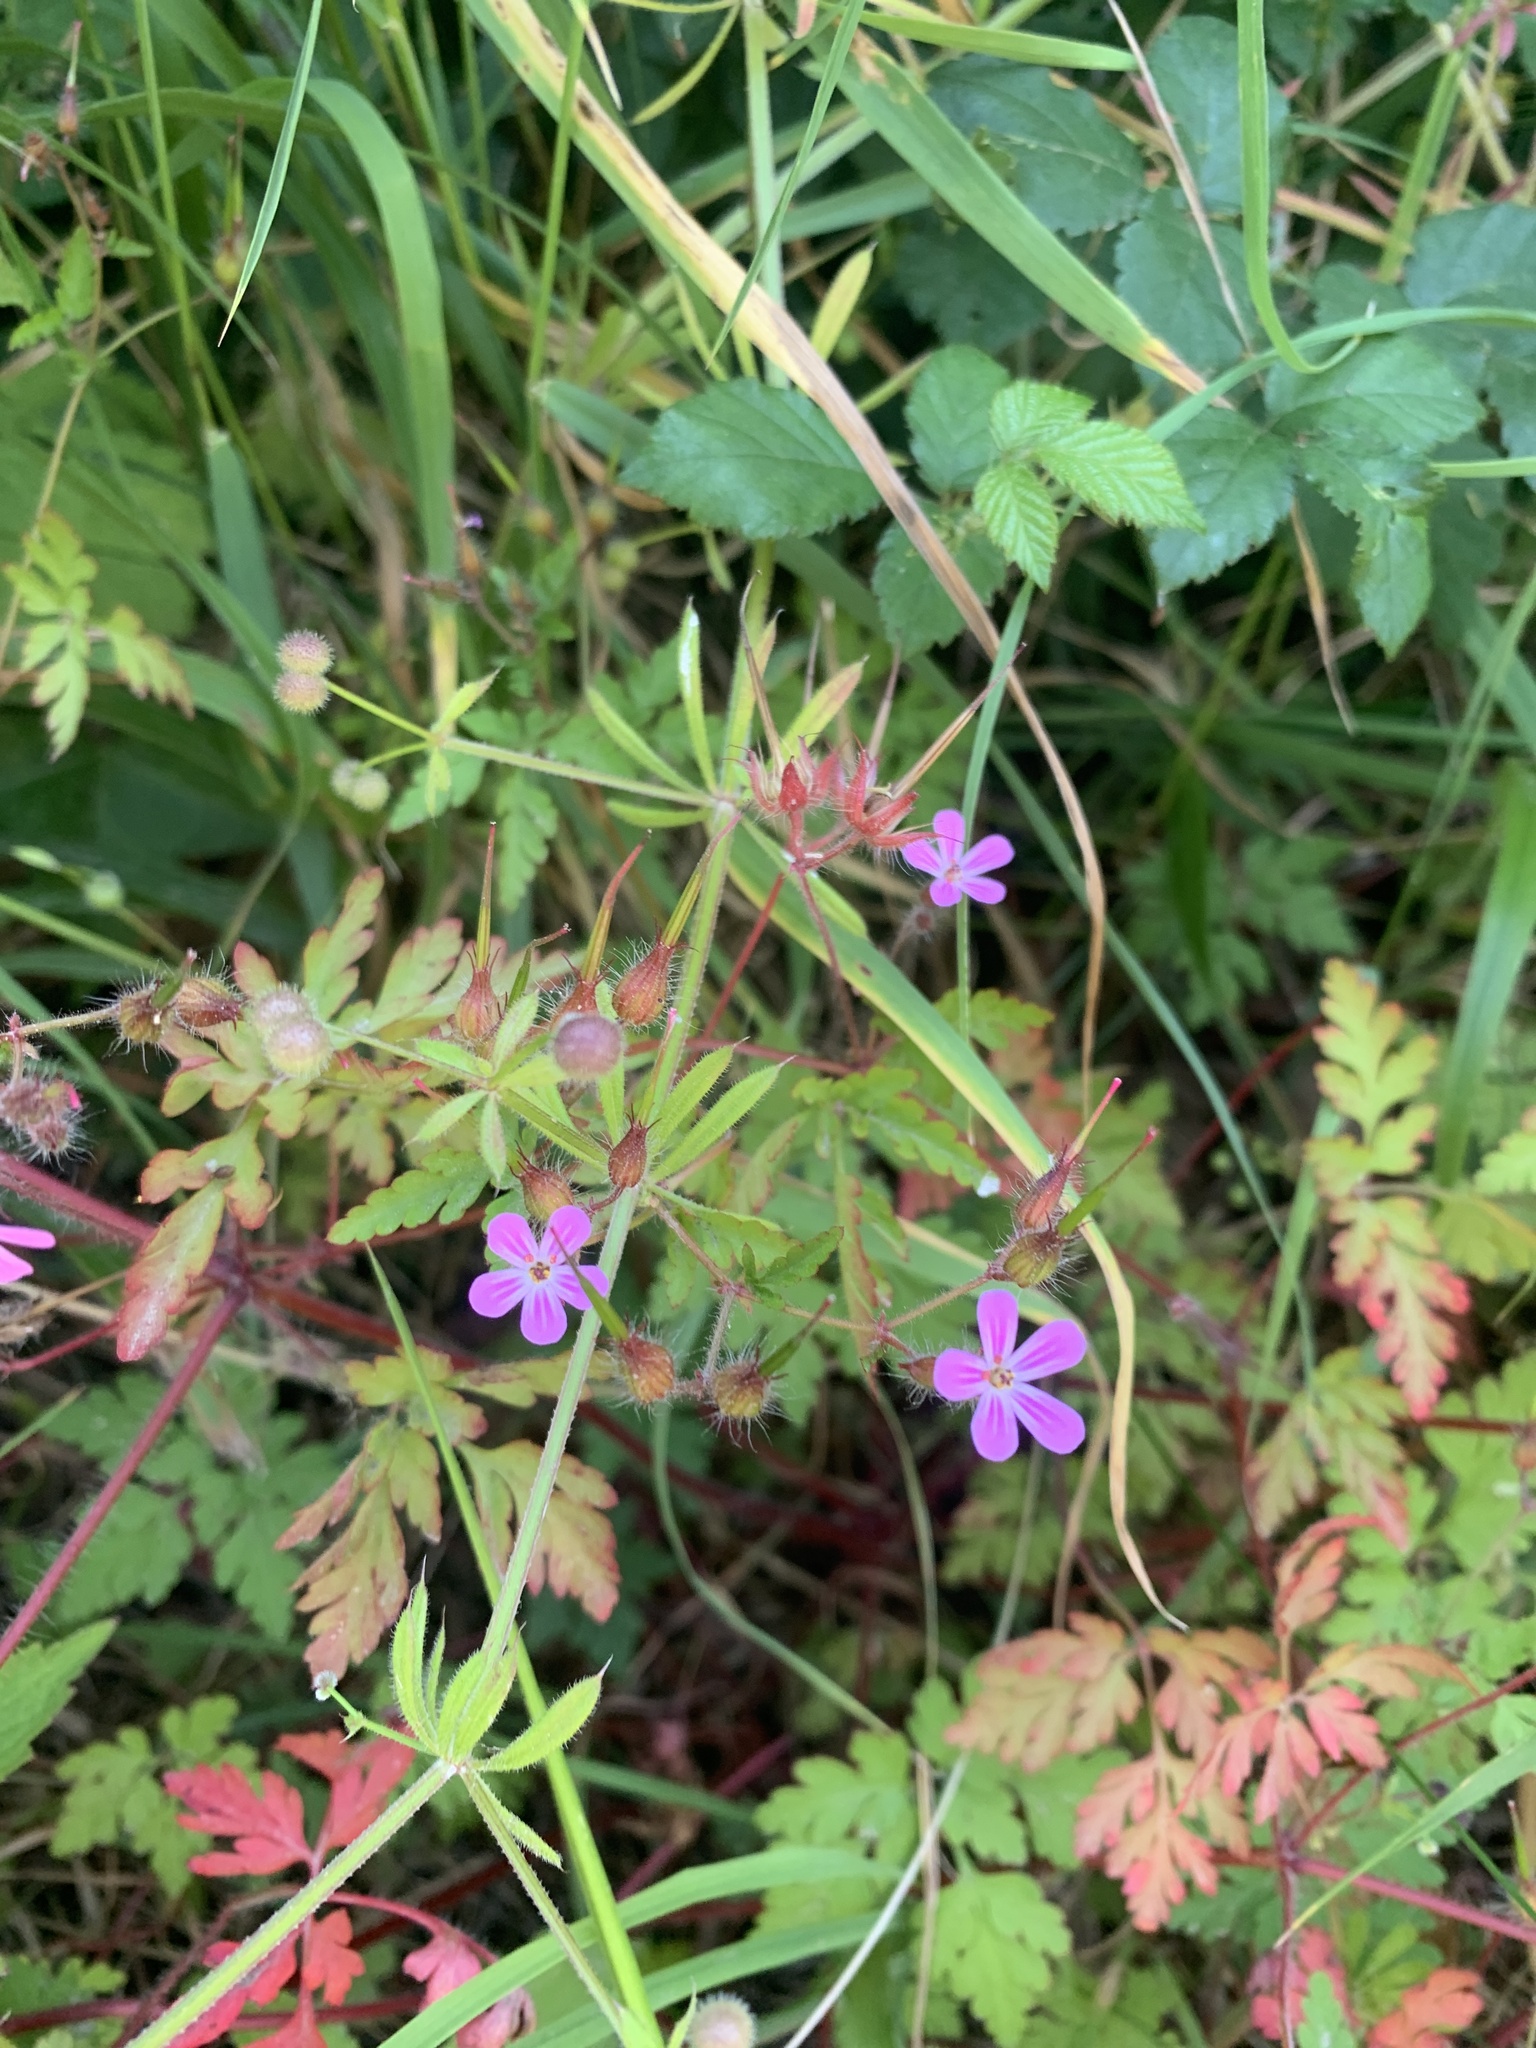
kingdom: Plantae
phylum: Tracheophyta
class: Magnoliopsida
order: Geraniales
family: Geraniaceae
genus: Geranium
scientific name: Geranium robertianum
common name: Herb-robert
